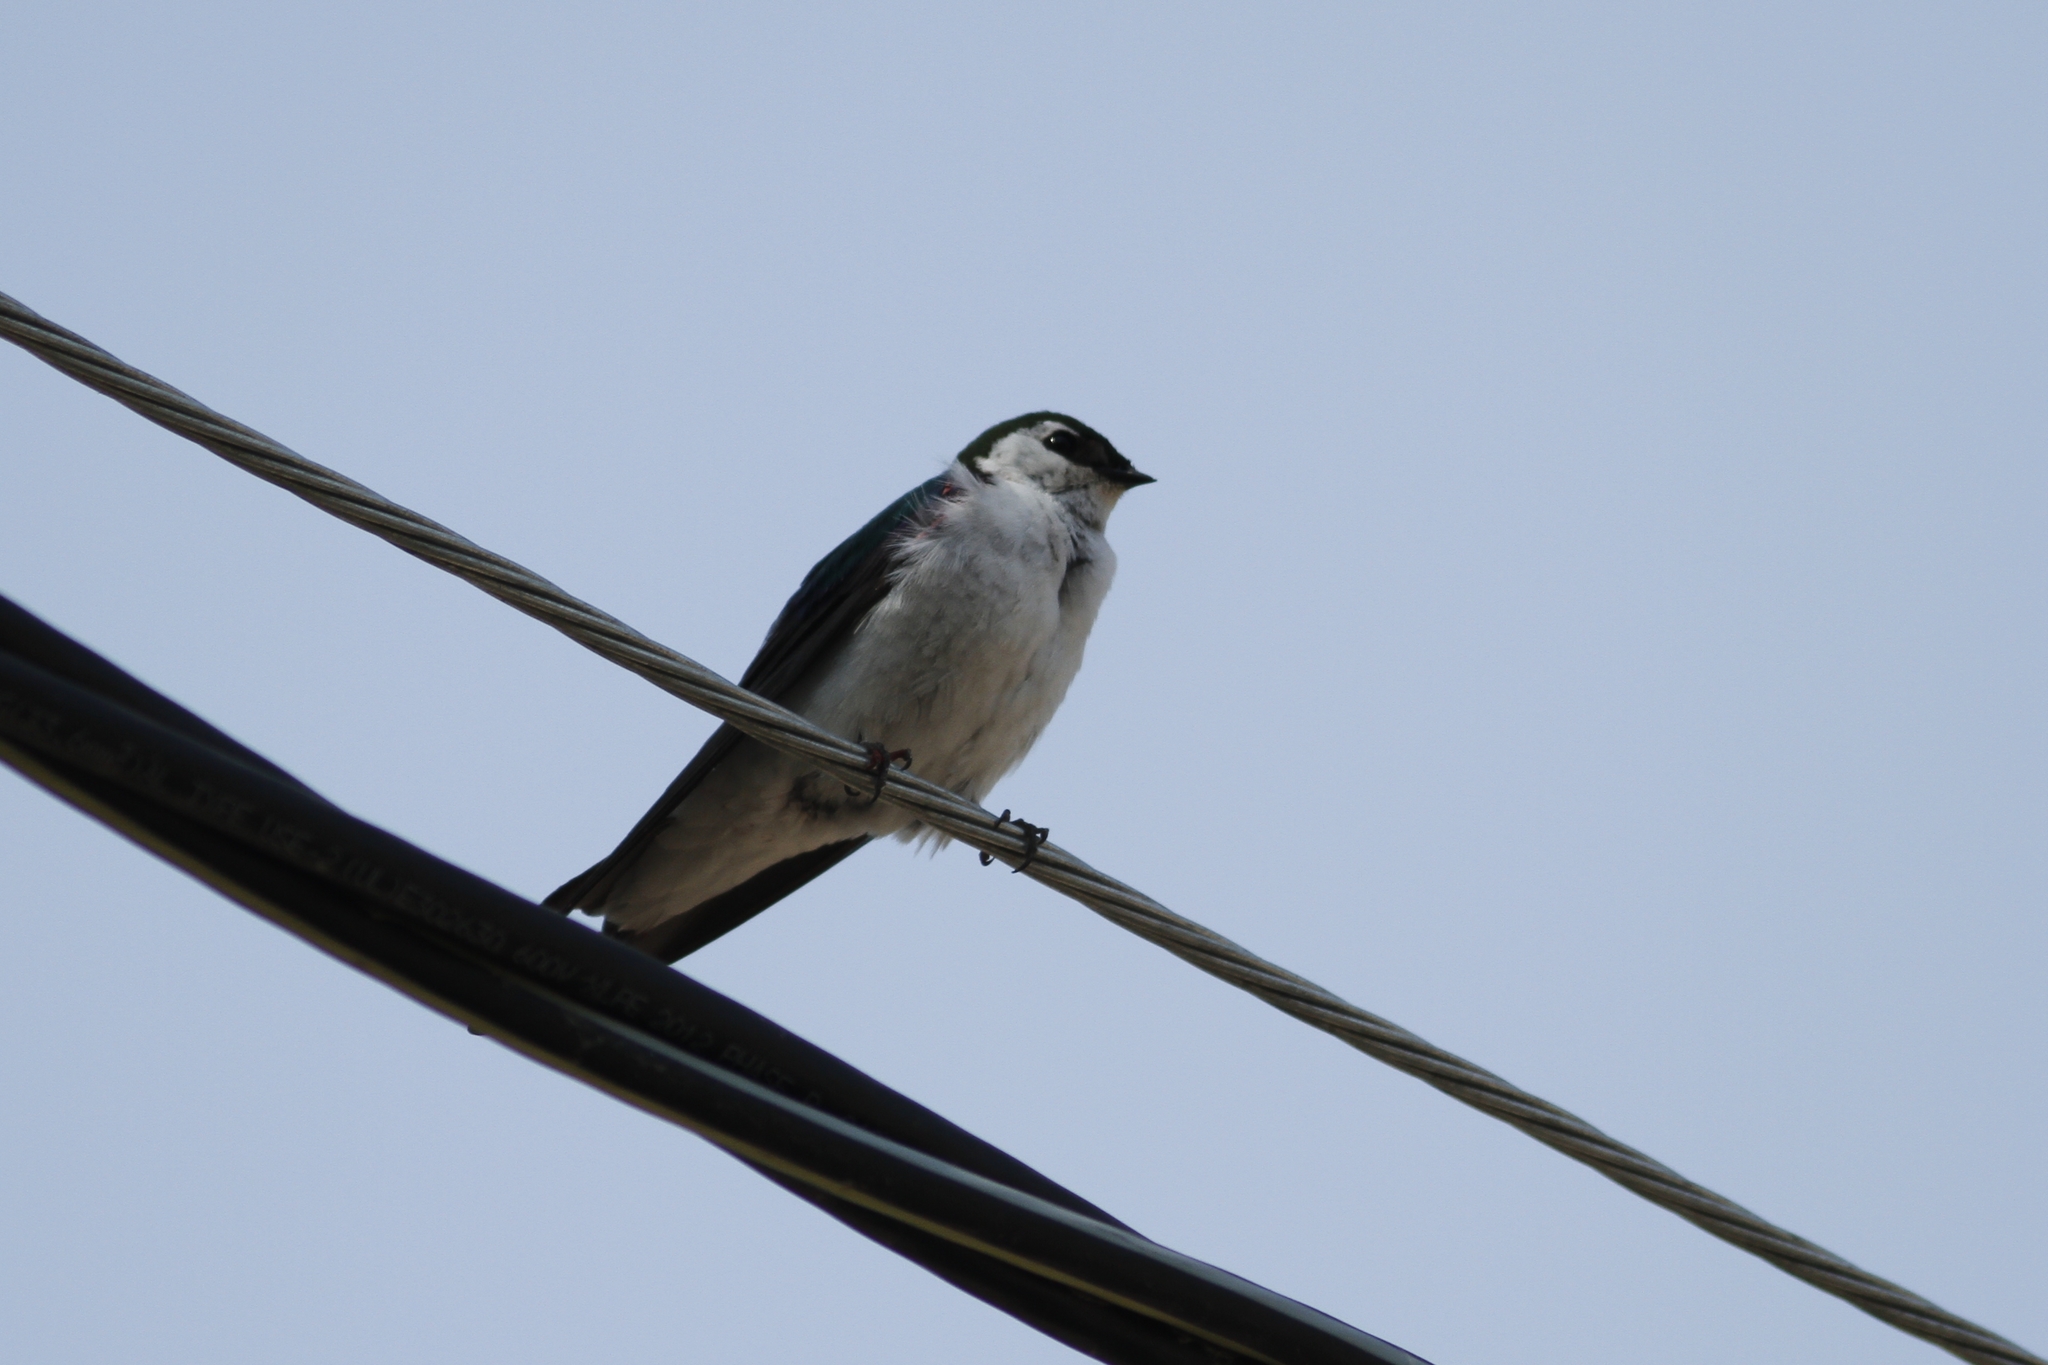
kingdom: Animalia
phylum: Chordata
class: Aves
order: Passeriformes
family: Hirundinidae
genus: Tachycineta
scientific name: Tachycineta thalassina
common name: Violet-green swallow
